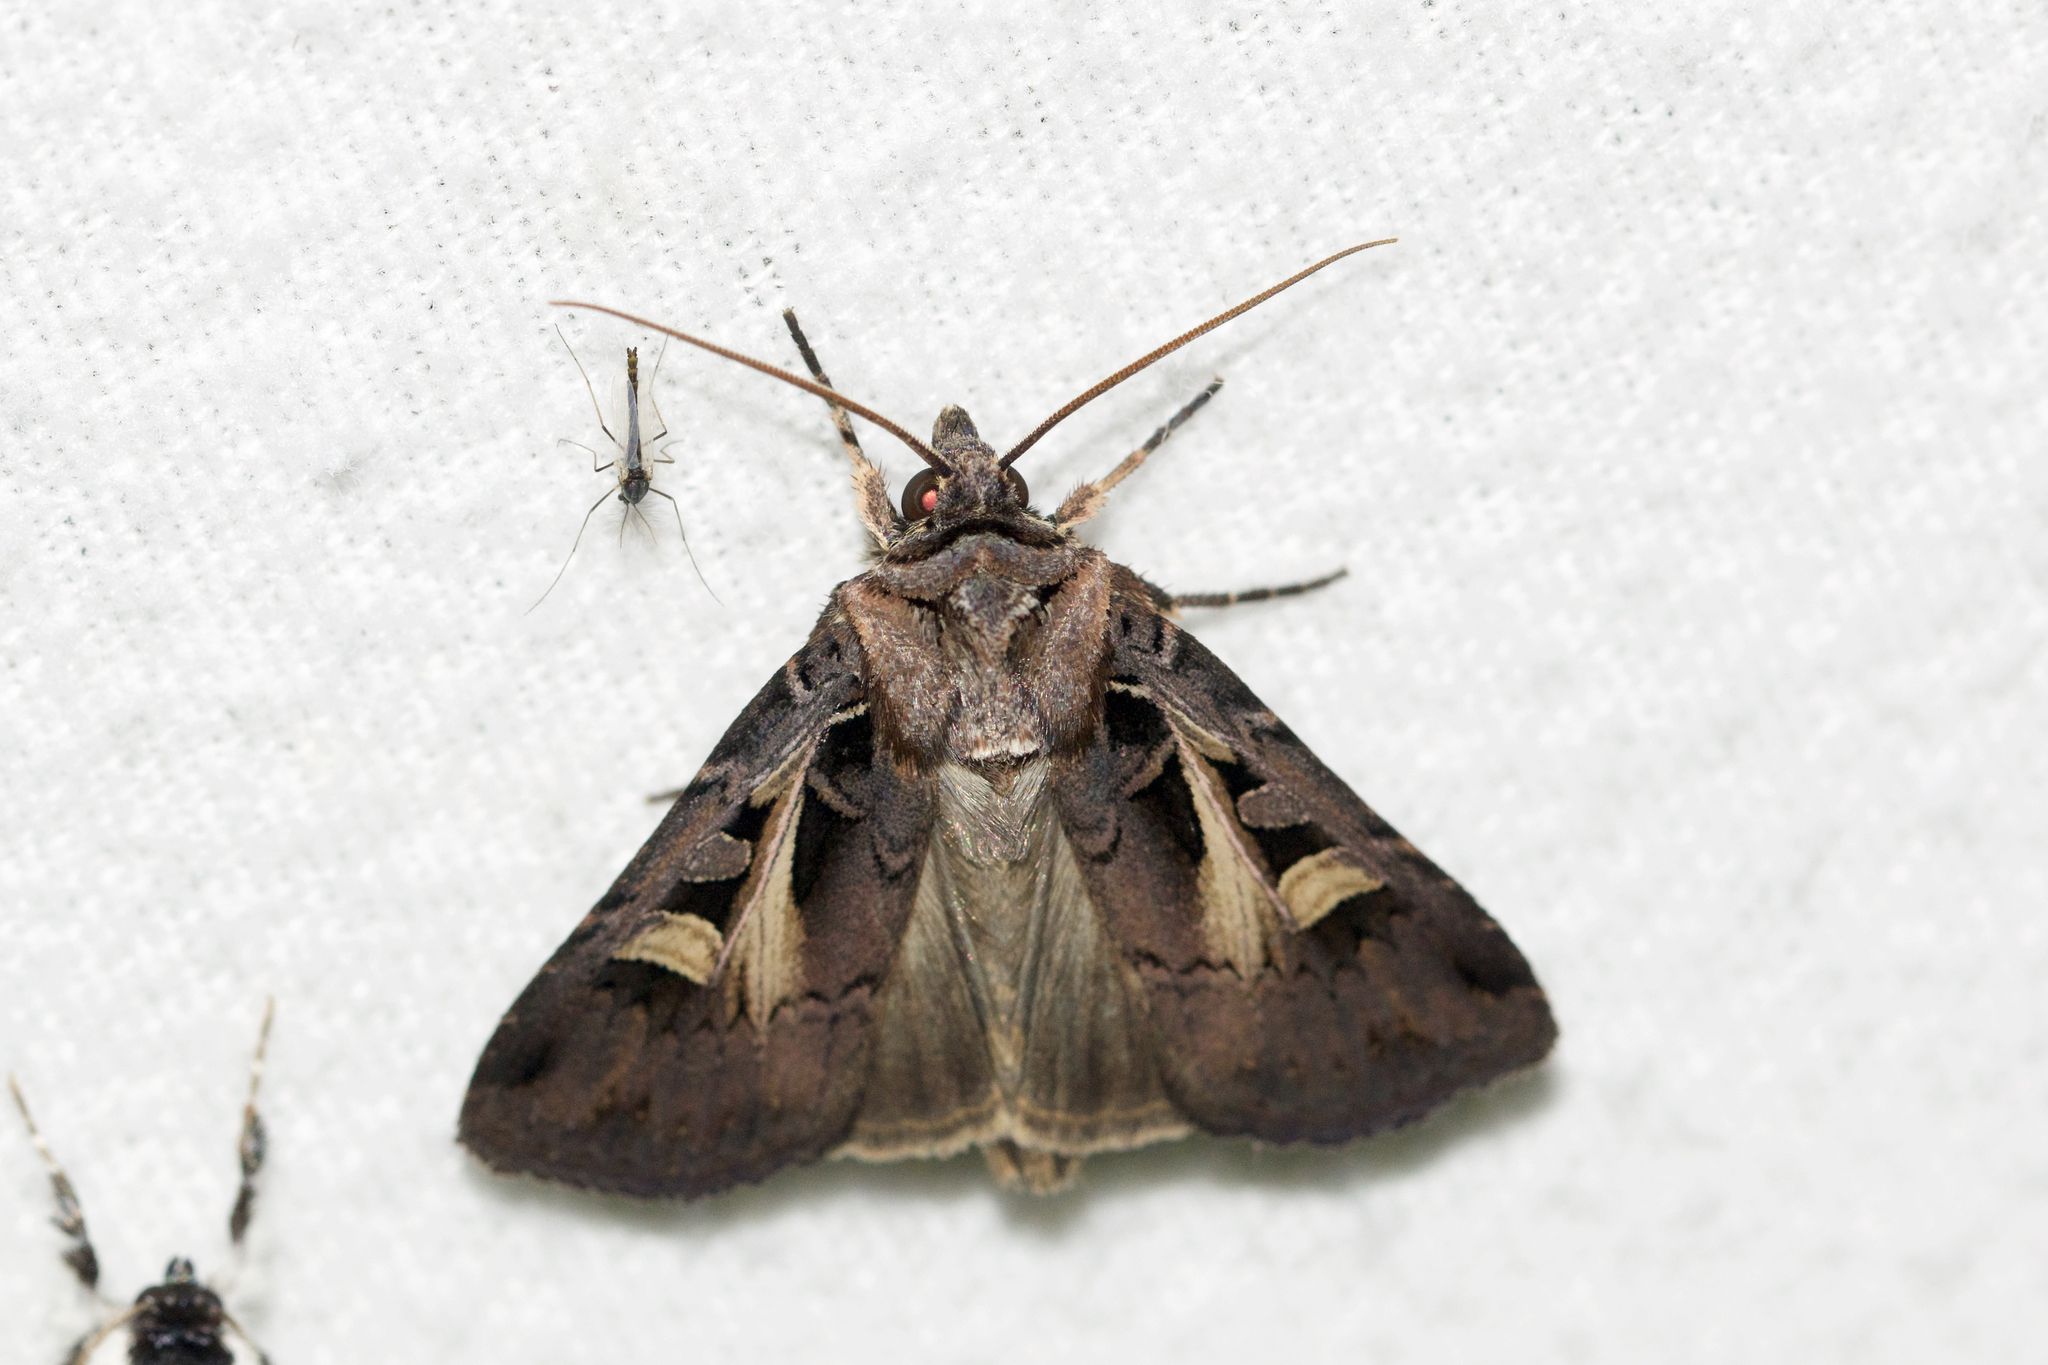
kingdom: Animalia
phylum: Arthropoda
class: Insecta
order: Lepidoptera
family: Noctuidae
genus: Feltia
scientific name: Feltia herilis
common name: Master's dart
